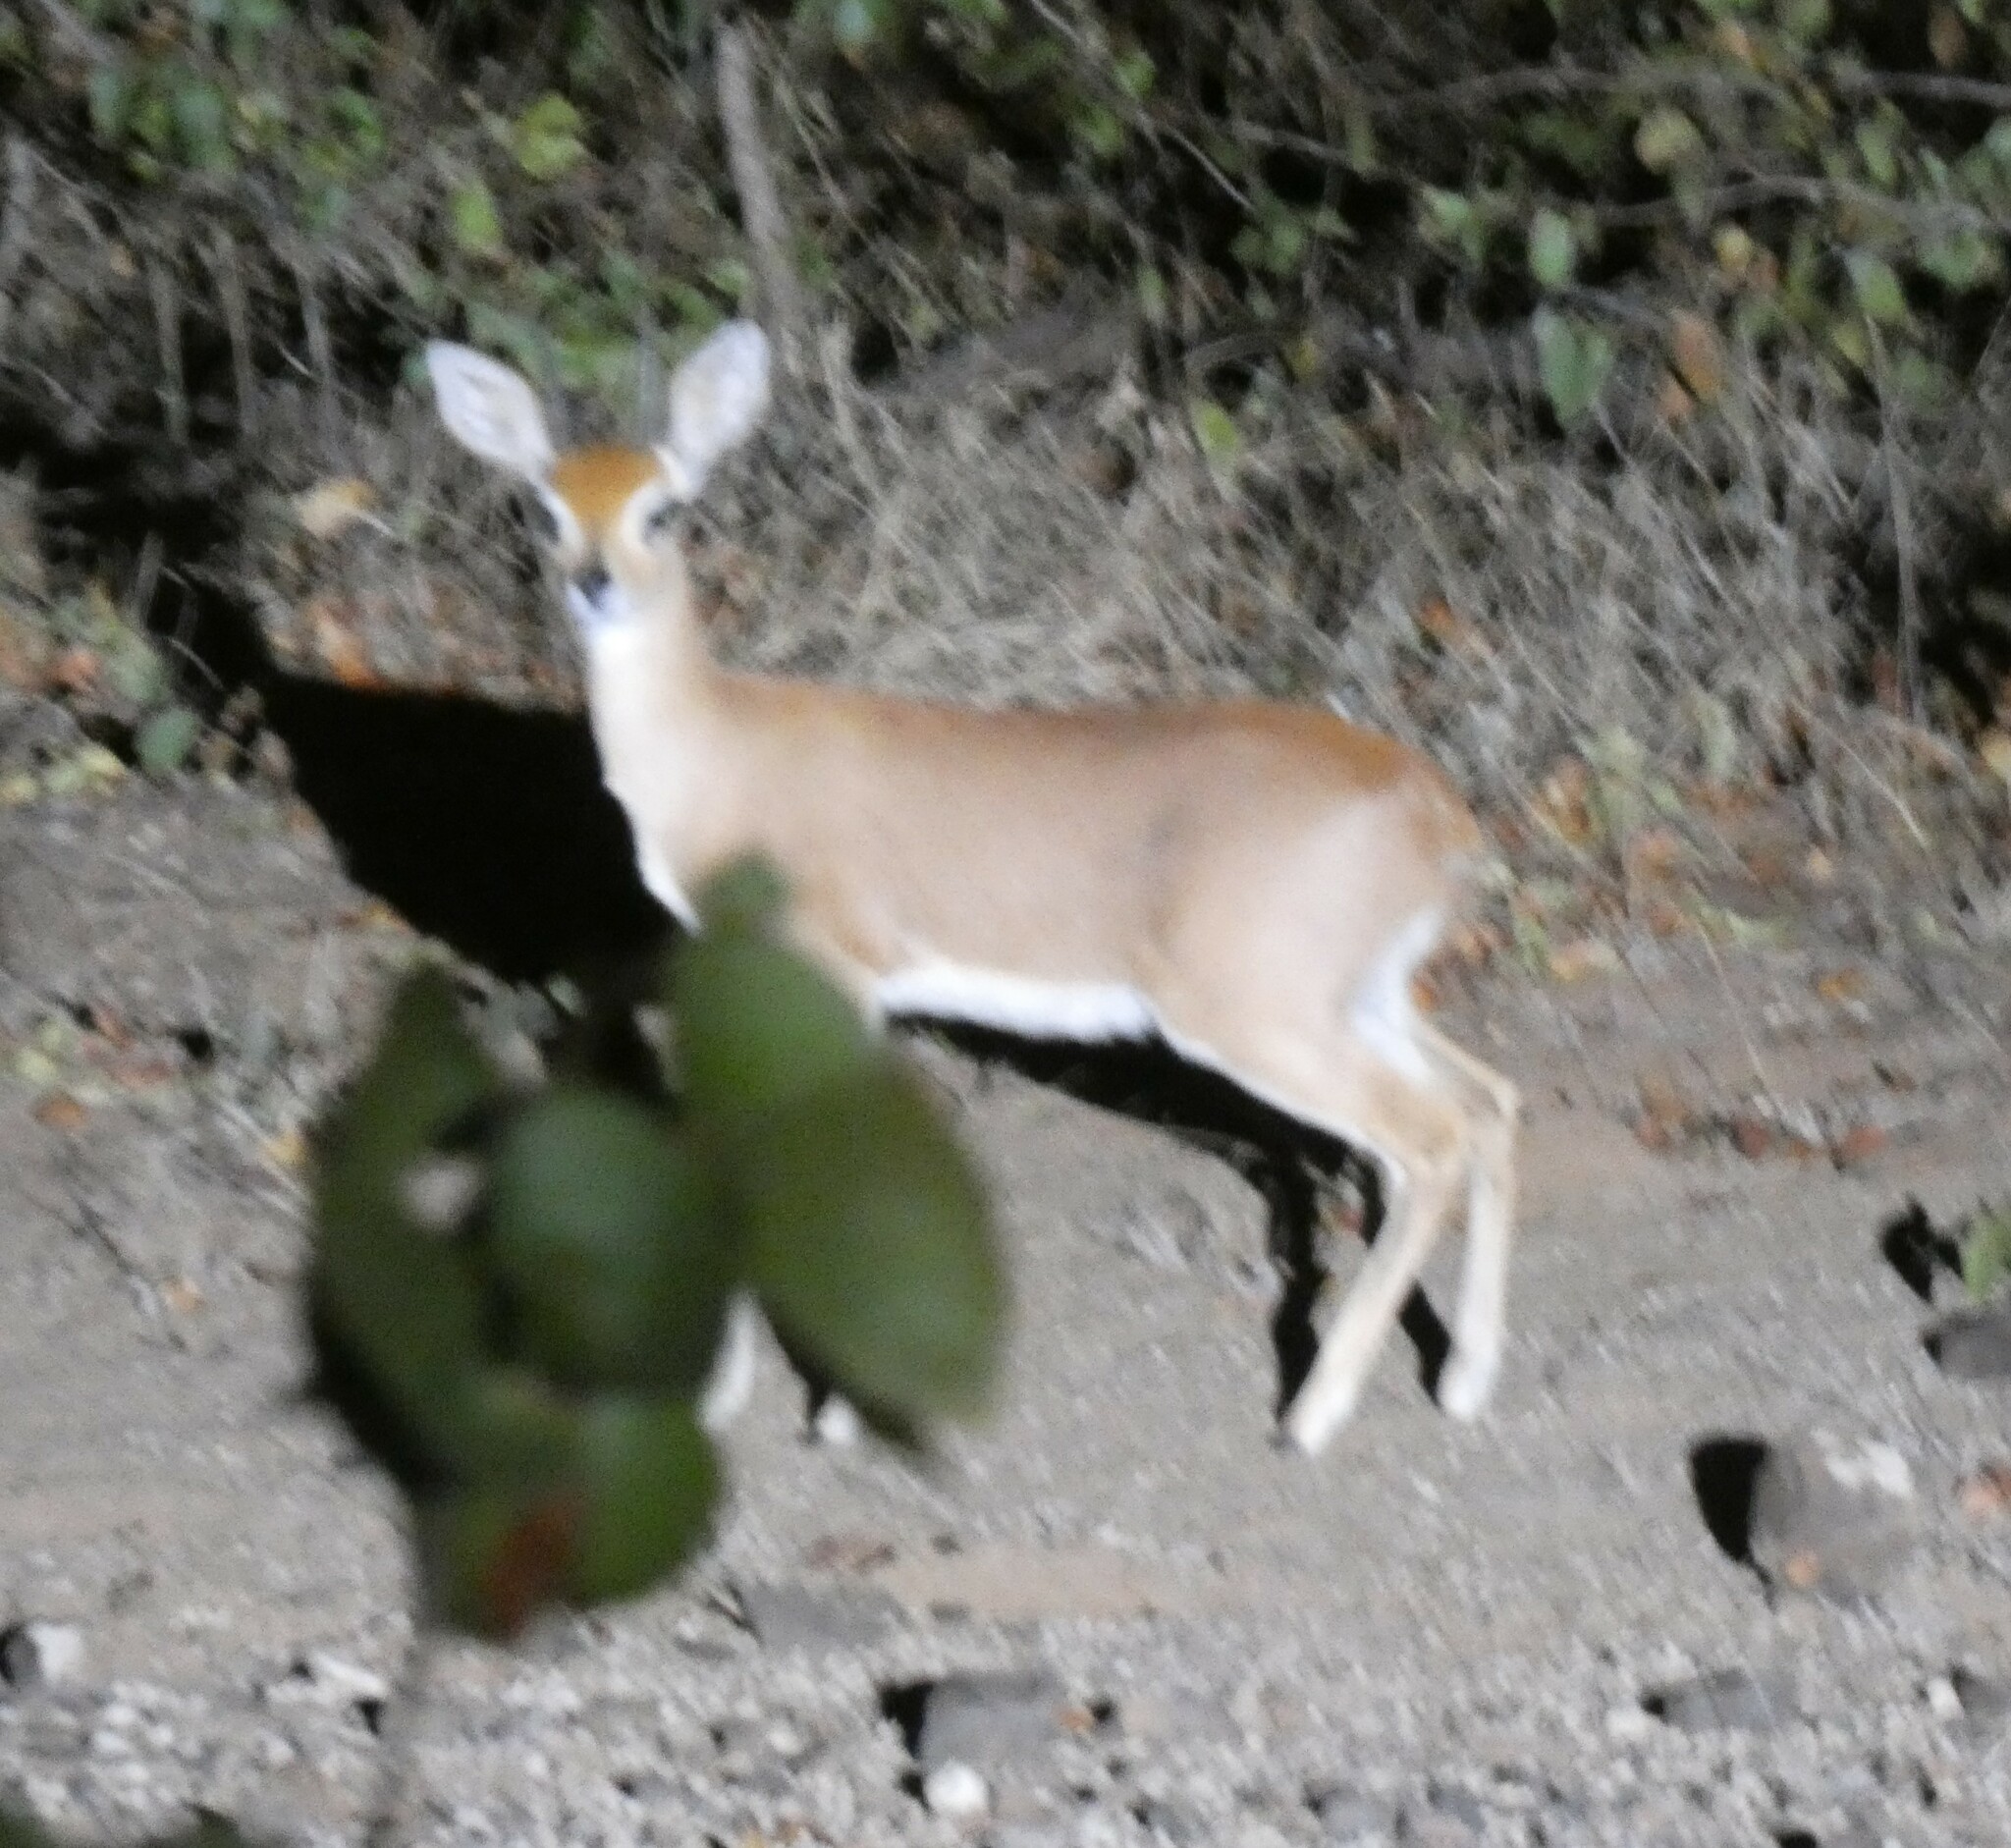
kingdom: Animalia
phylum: Chordata
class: Mammalia
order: Artiodactyla
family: Bovidae
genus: Raphicerus
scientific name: Raphicerus campestris
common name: Steenbok
